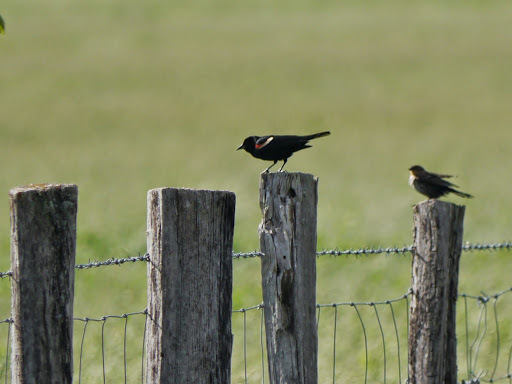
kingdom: Animalia
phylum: Chordata
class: Aves
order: Passeriformes
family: Icteridae
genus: Agelaius
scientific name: Agelaius phoeniceus
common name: Red-winged blackbird
